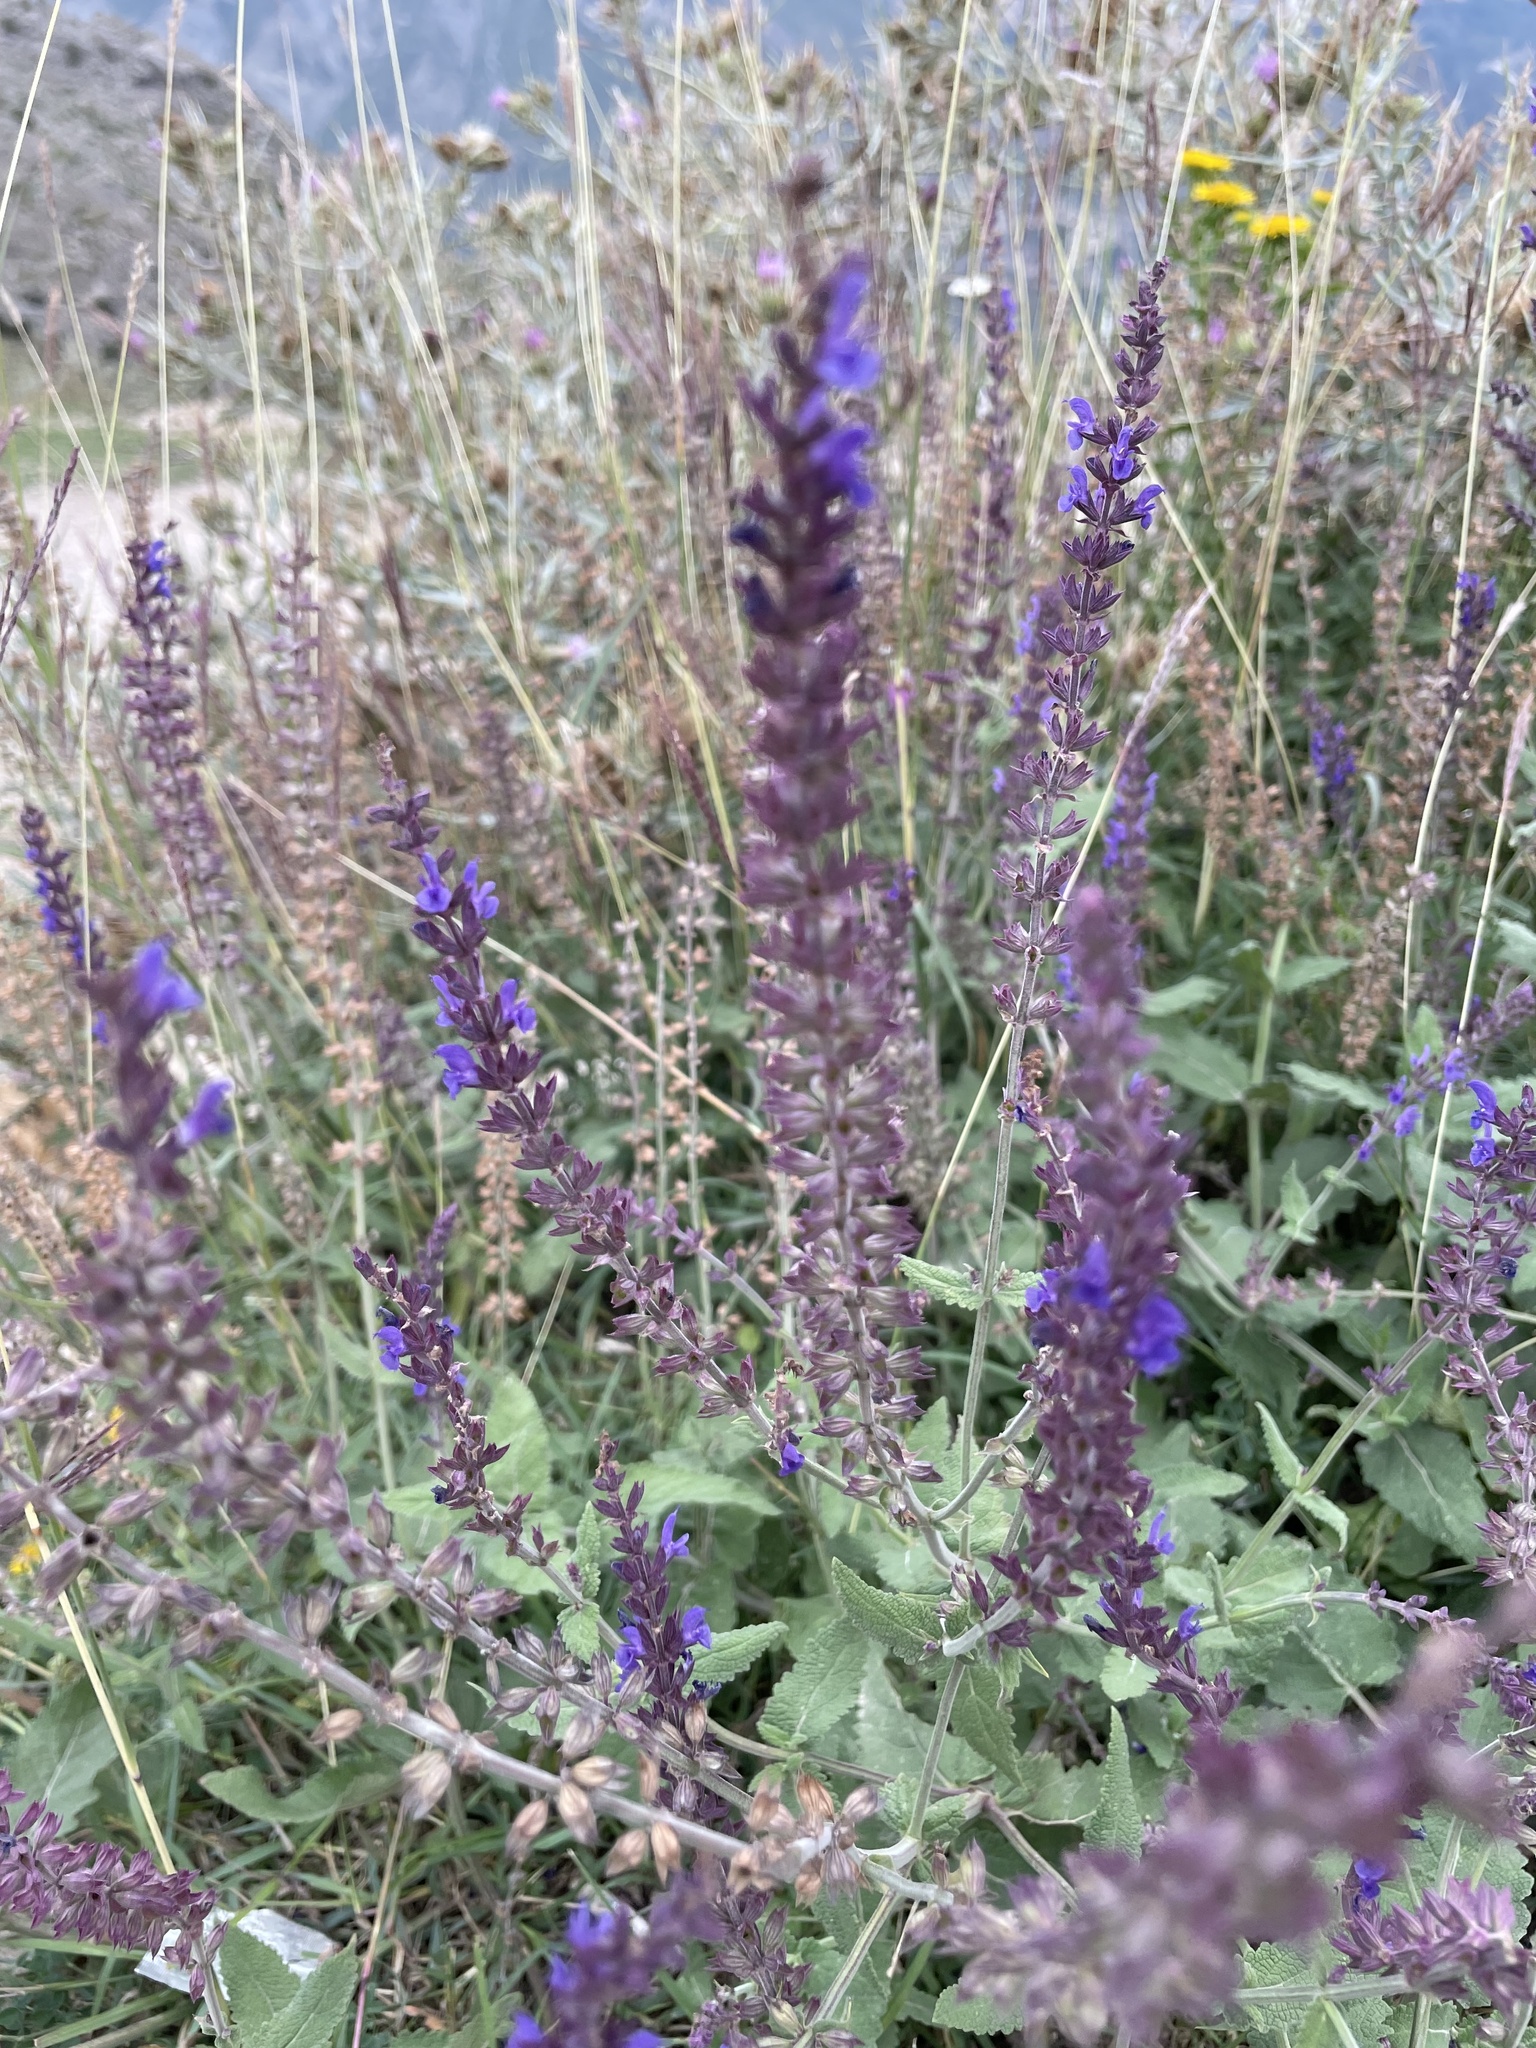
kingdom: Plantae
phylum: Tracheophyta
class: Magnoliopsida
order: Lamiales
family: Lamiaceae
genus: Salvia
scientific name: Salvia nemorosa
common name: Balkan clary
